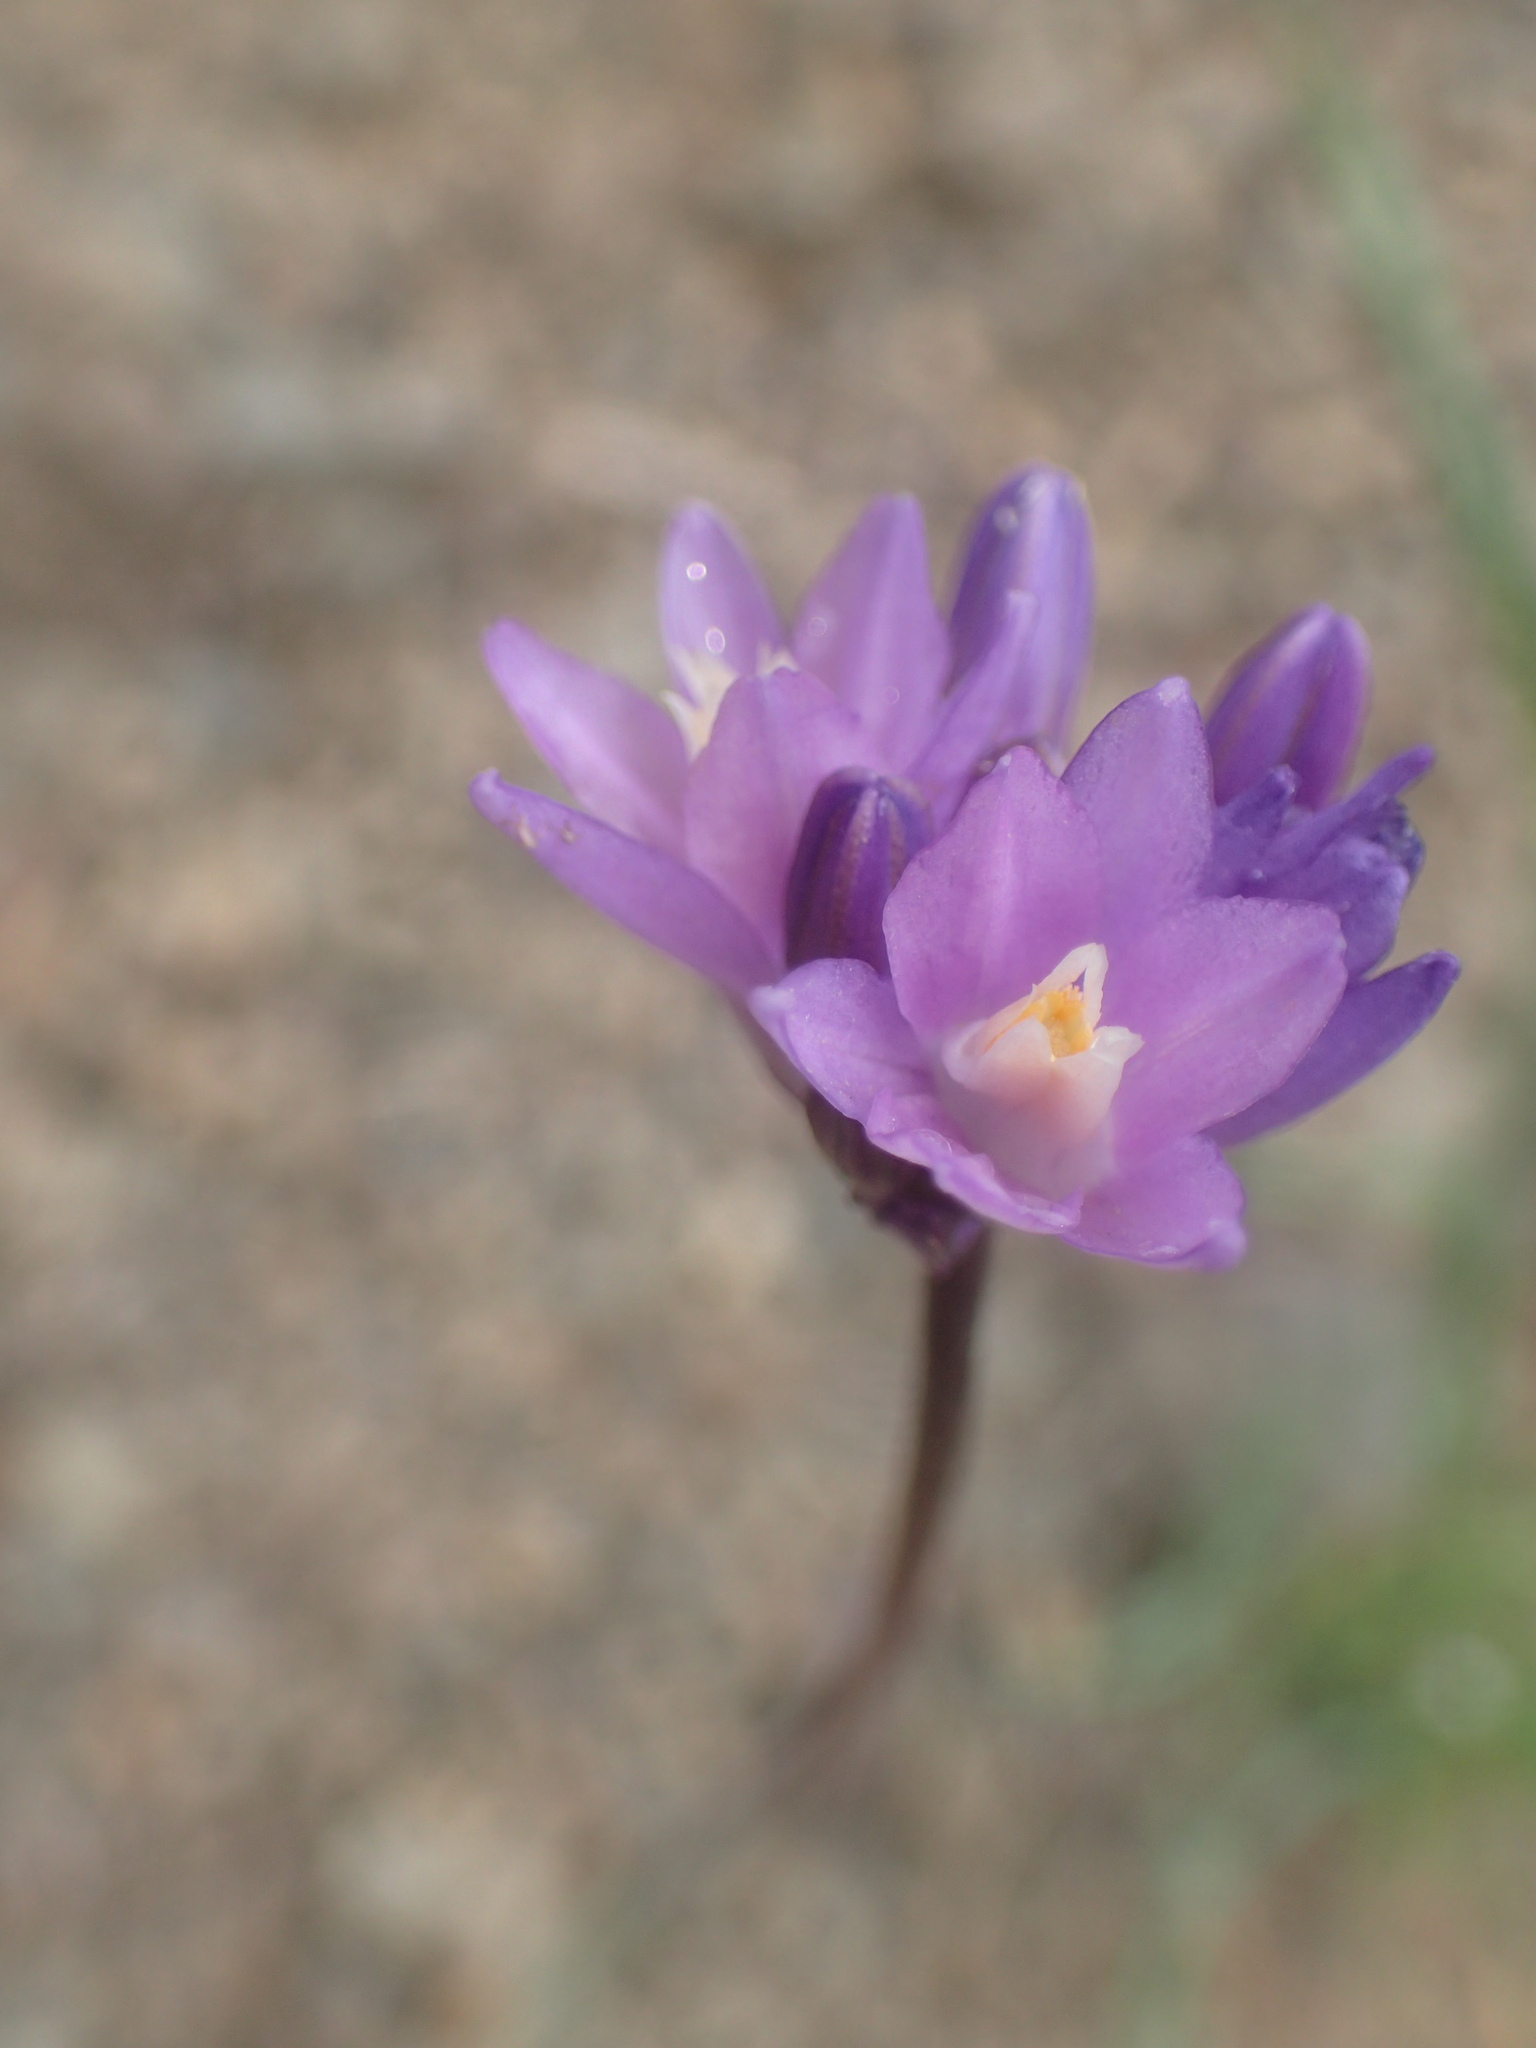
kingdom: Plantae
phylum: Tracheophyta
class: Liliopsida
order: Asparagales
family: Asparagaceae
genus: Dipterostemon
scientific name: Dipterostemon capitatus
